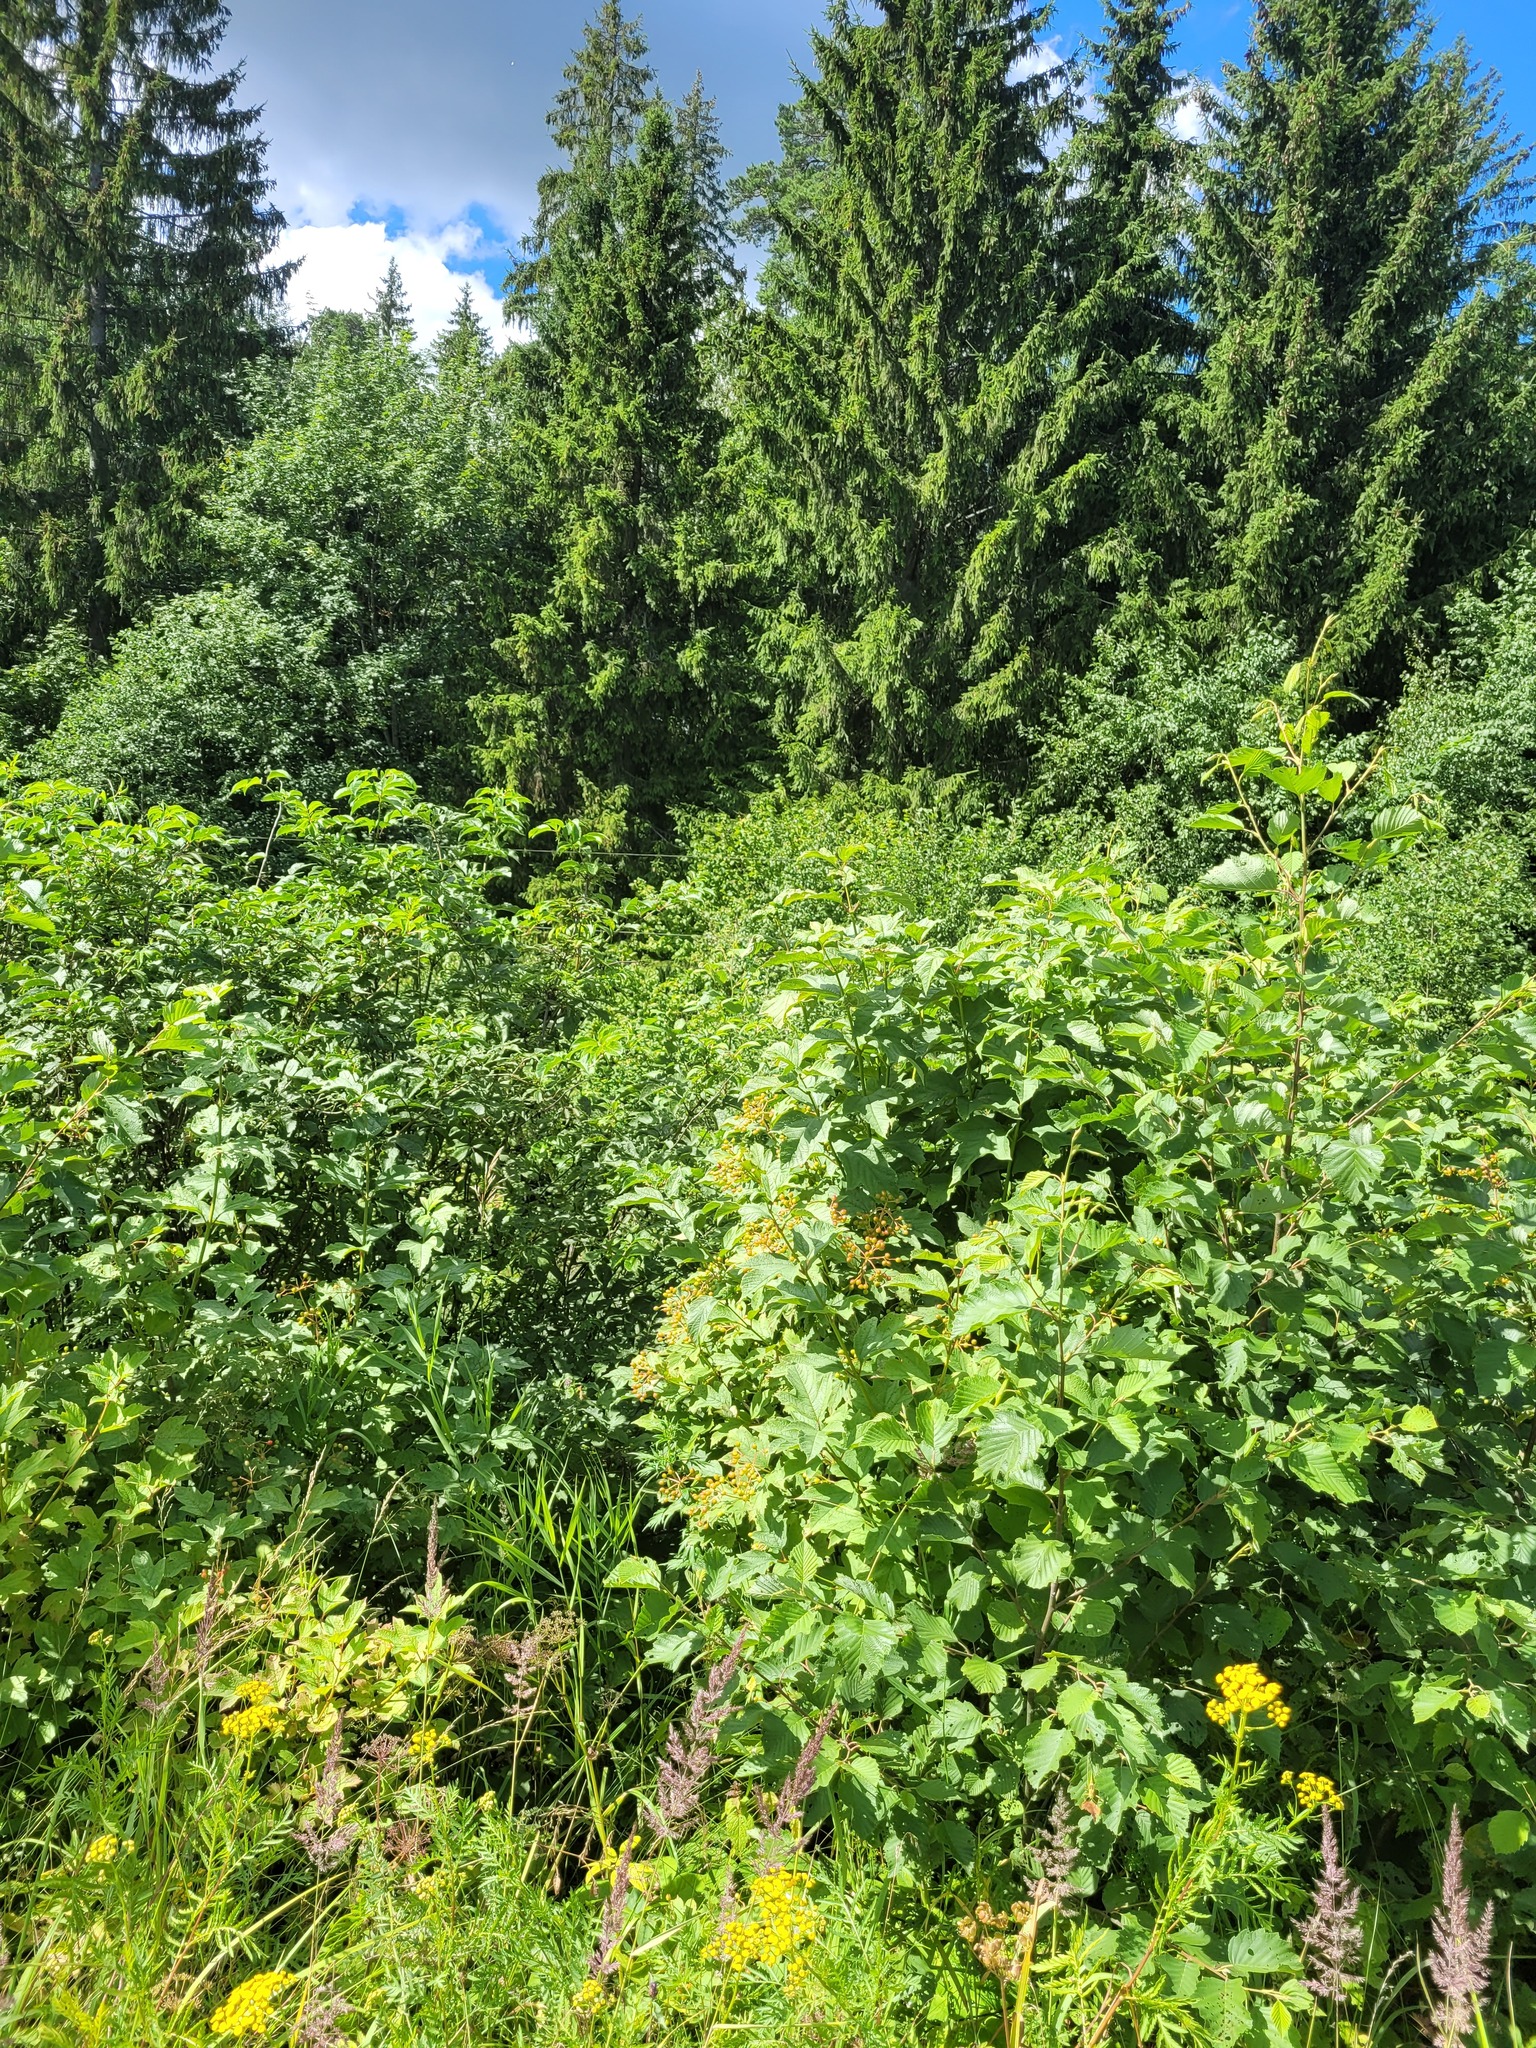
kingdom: Plantae
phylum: Tracheophyta
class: Magnoliopsida
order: Dipsacales
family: Viburnaceae
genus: Viburnum
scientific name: Viburnum opulus
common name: Guelder-rose
